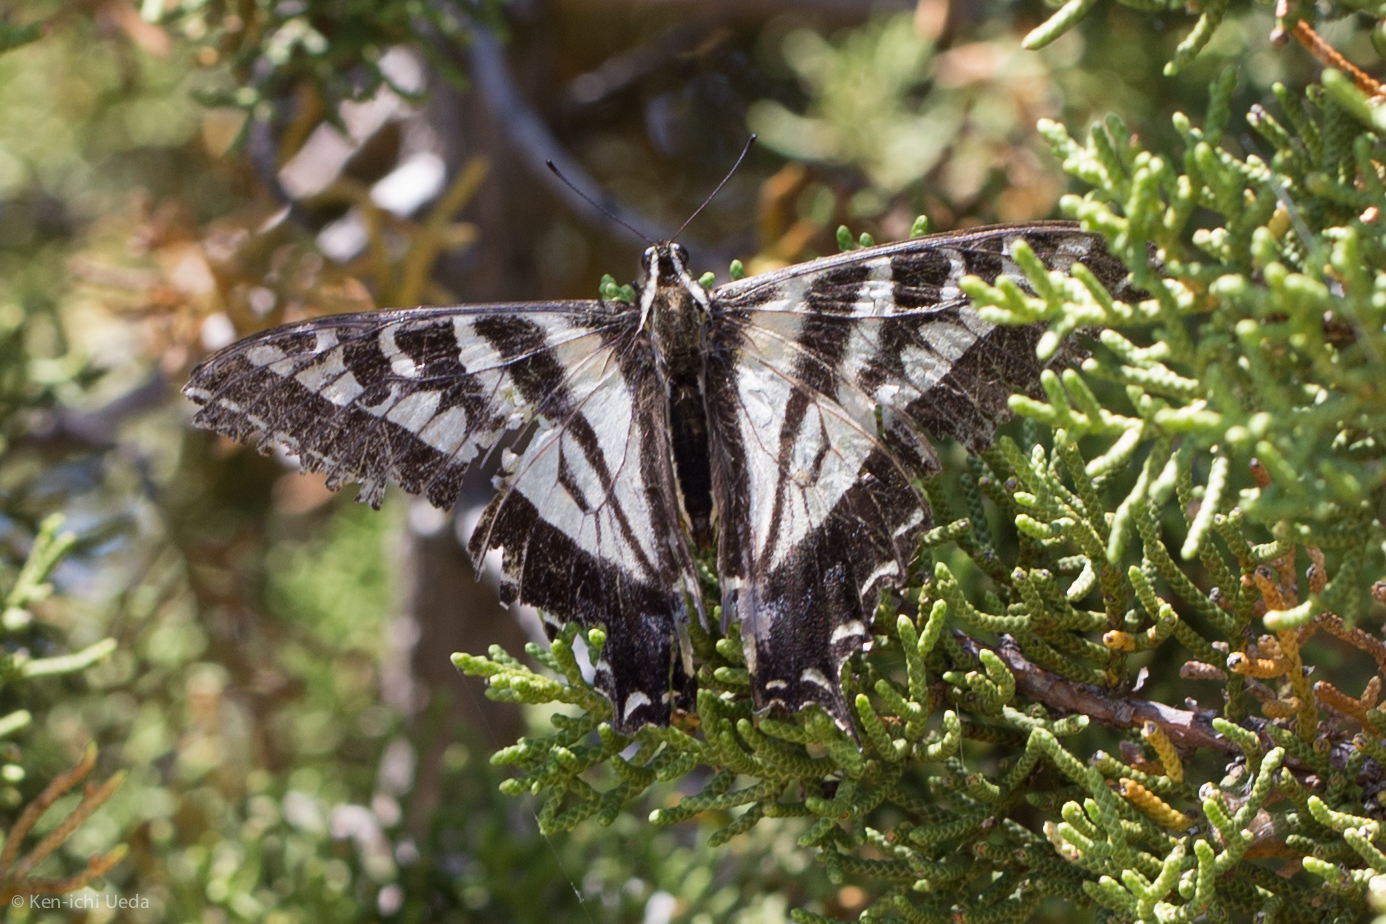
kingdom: Animalia
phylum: Arthropoda
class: Insecta
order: Lepidoptera
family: Papilionidae
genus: Papilio
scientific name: Papilio eurymedon
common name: Pale tiger swallowtail
